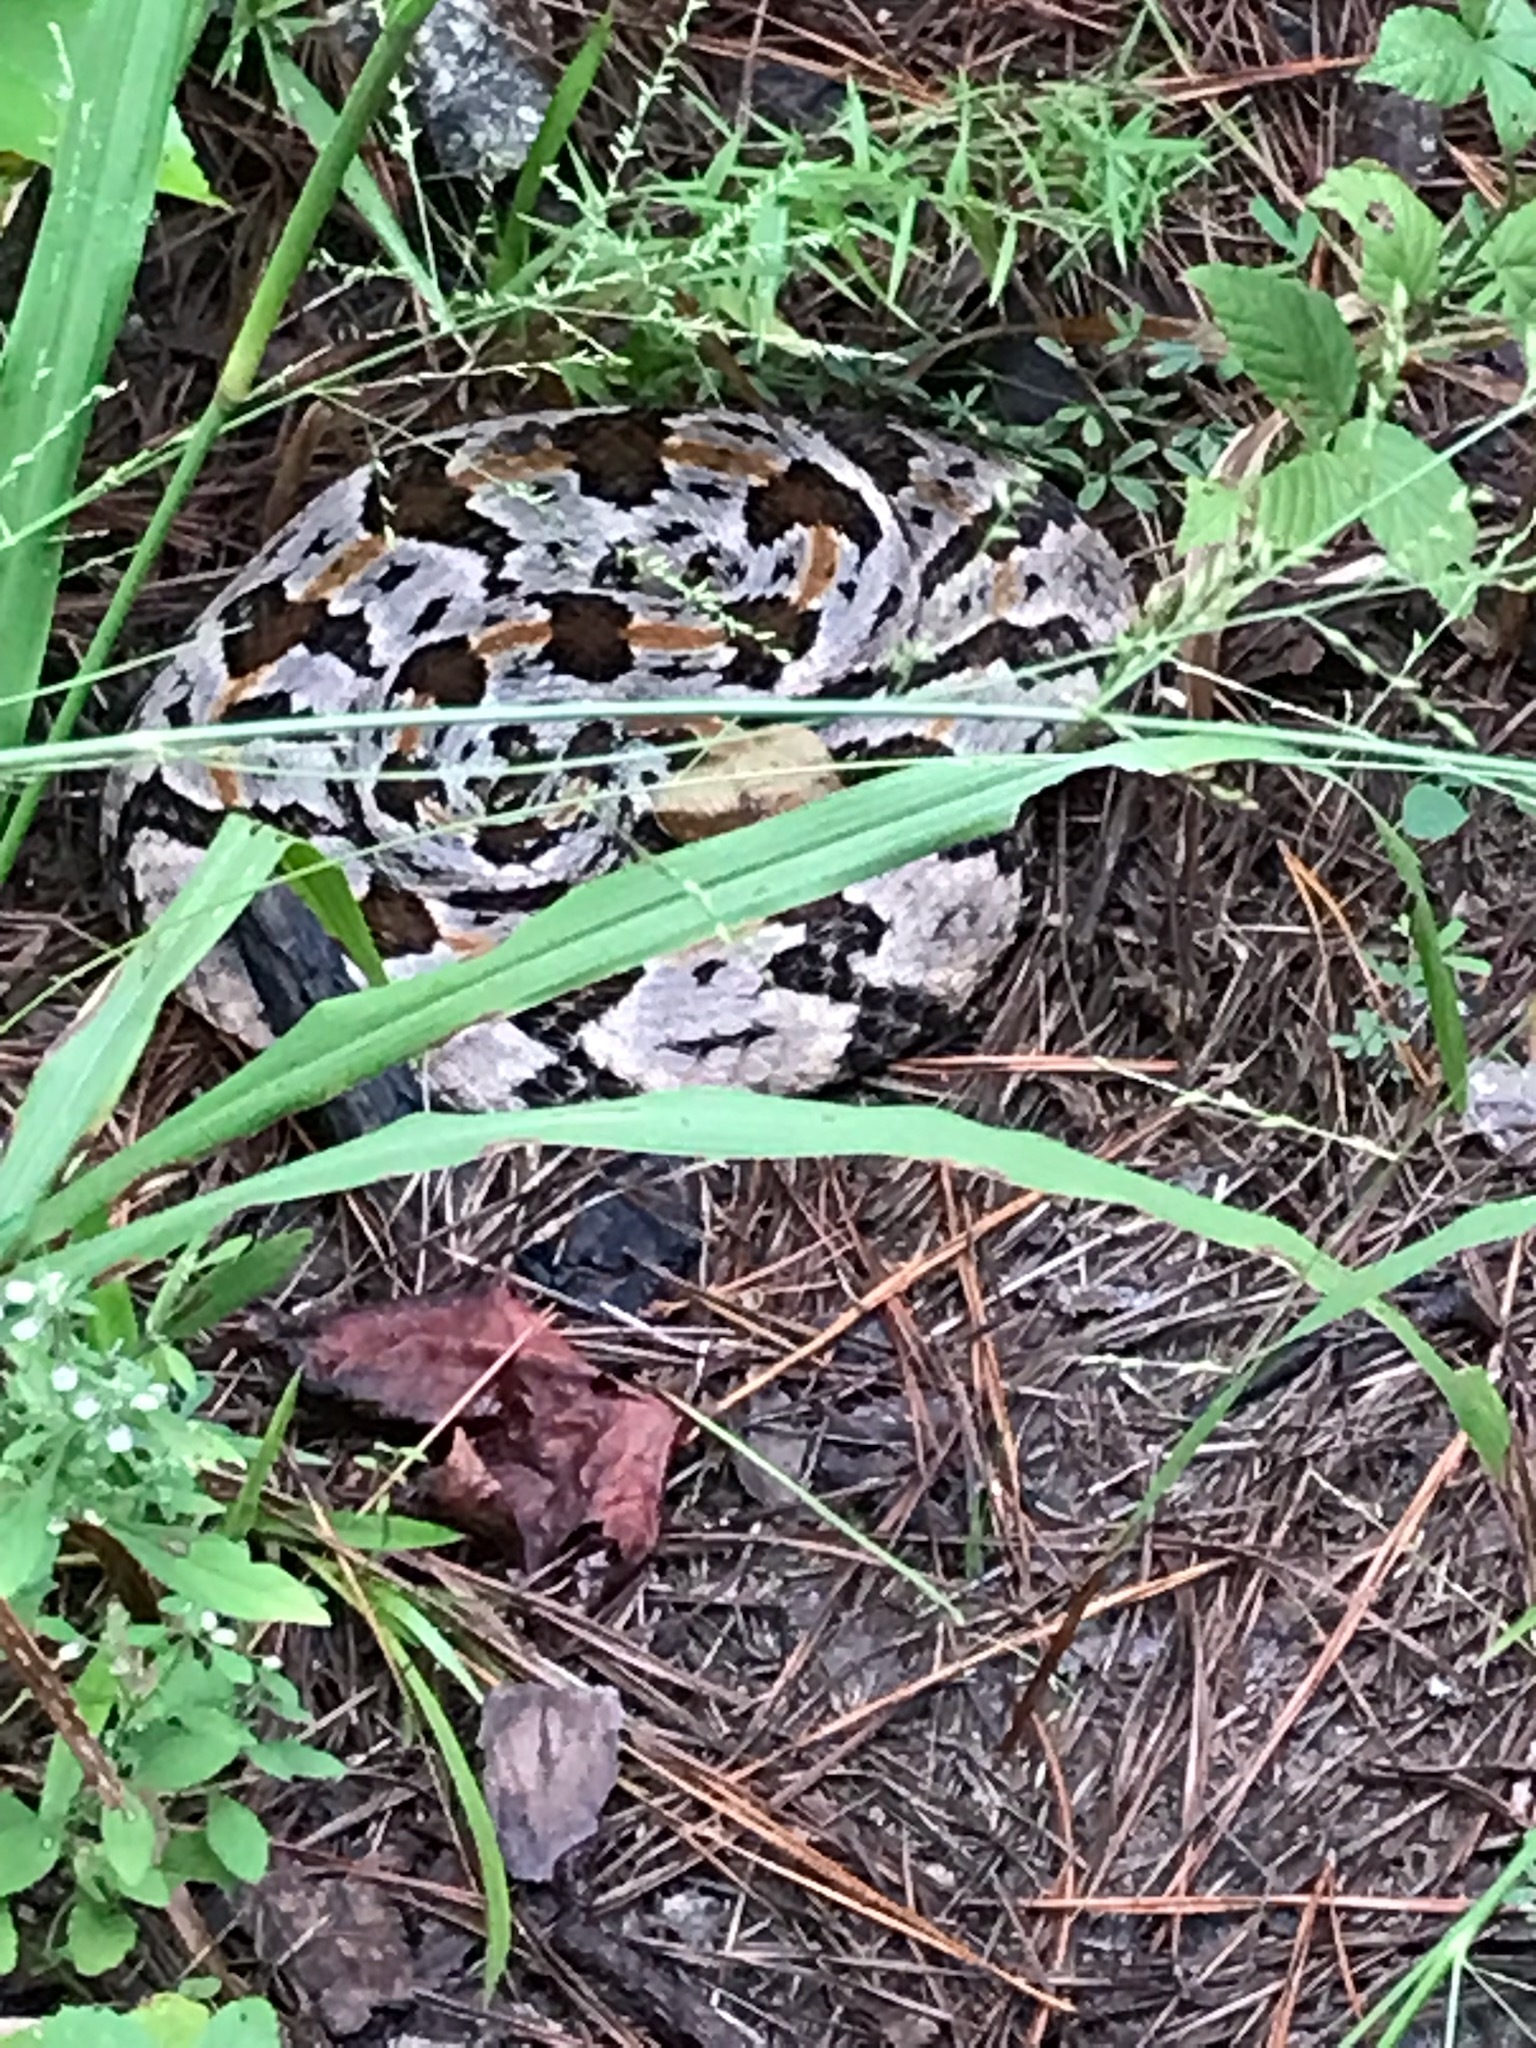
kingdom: Animalia
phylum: Chordata
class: Squamata
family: Viperidae
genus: Crotalus
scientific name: Crotalus horridus
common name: Timber rattlesnake
